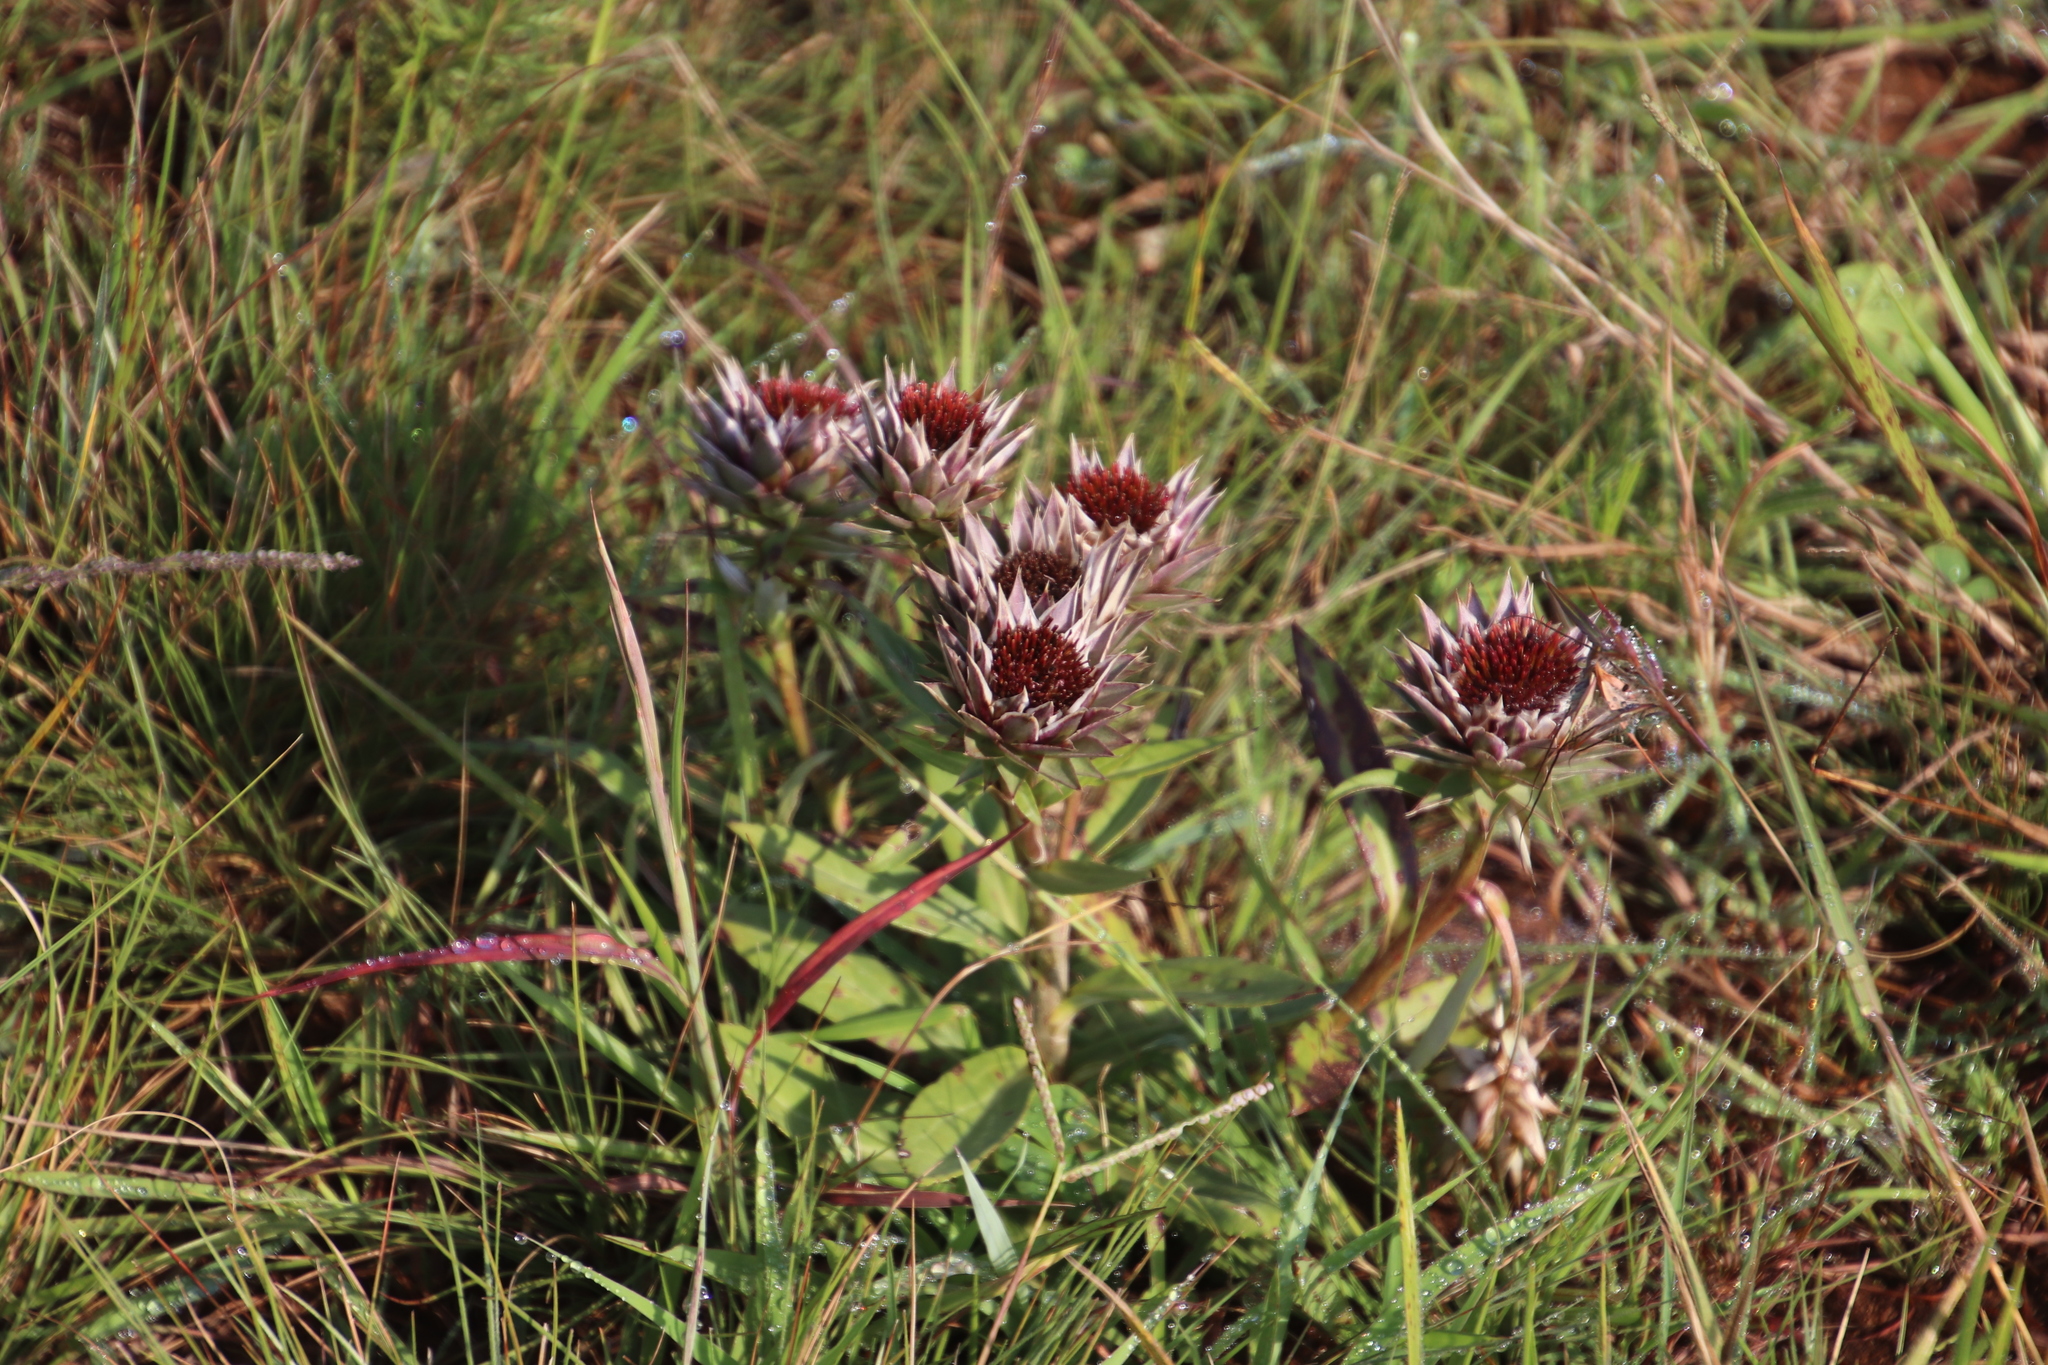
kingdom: Plantae
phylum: Tracheophyta
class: Magnoliopsida
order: Asterales
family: Asteraceae
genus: Macledium
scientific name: Macledium zeyheri
